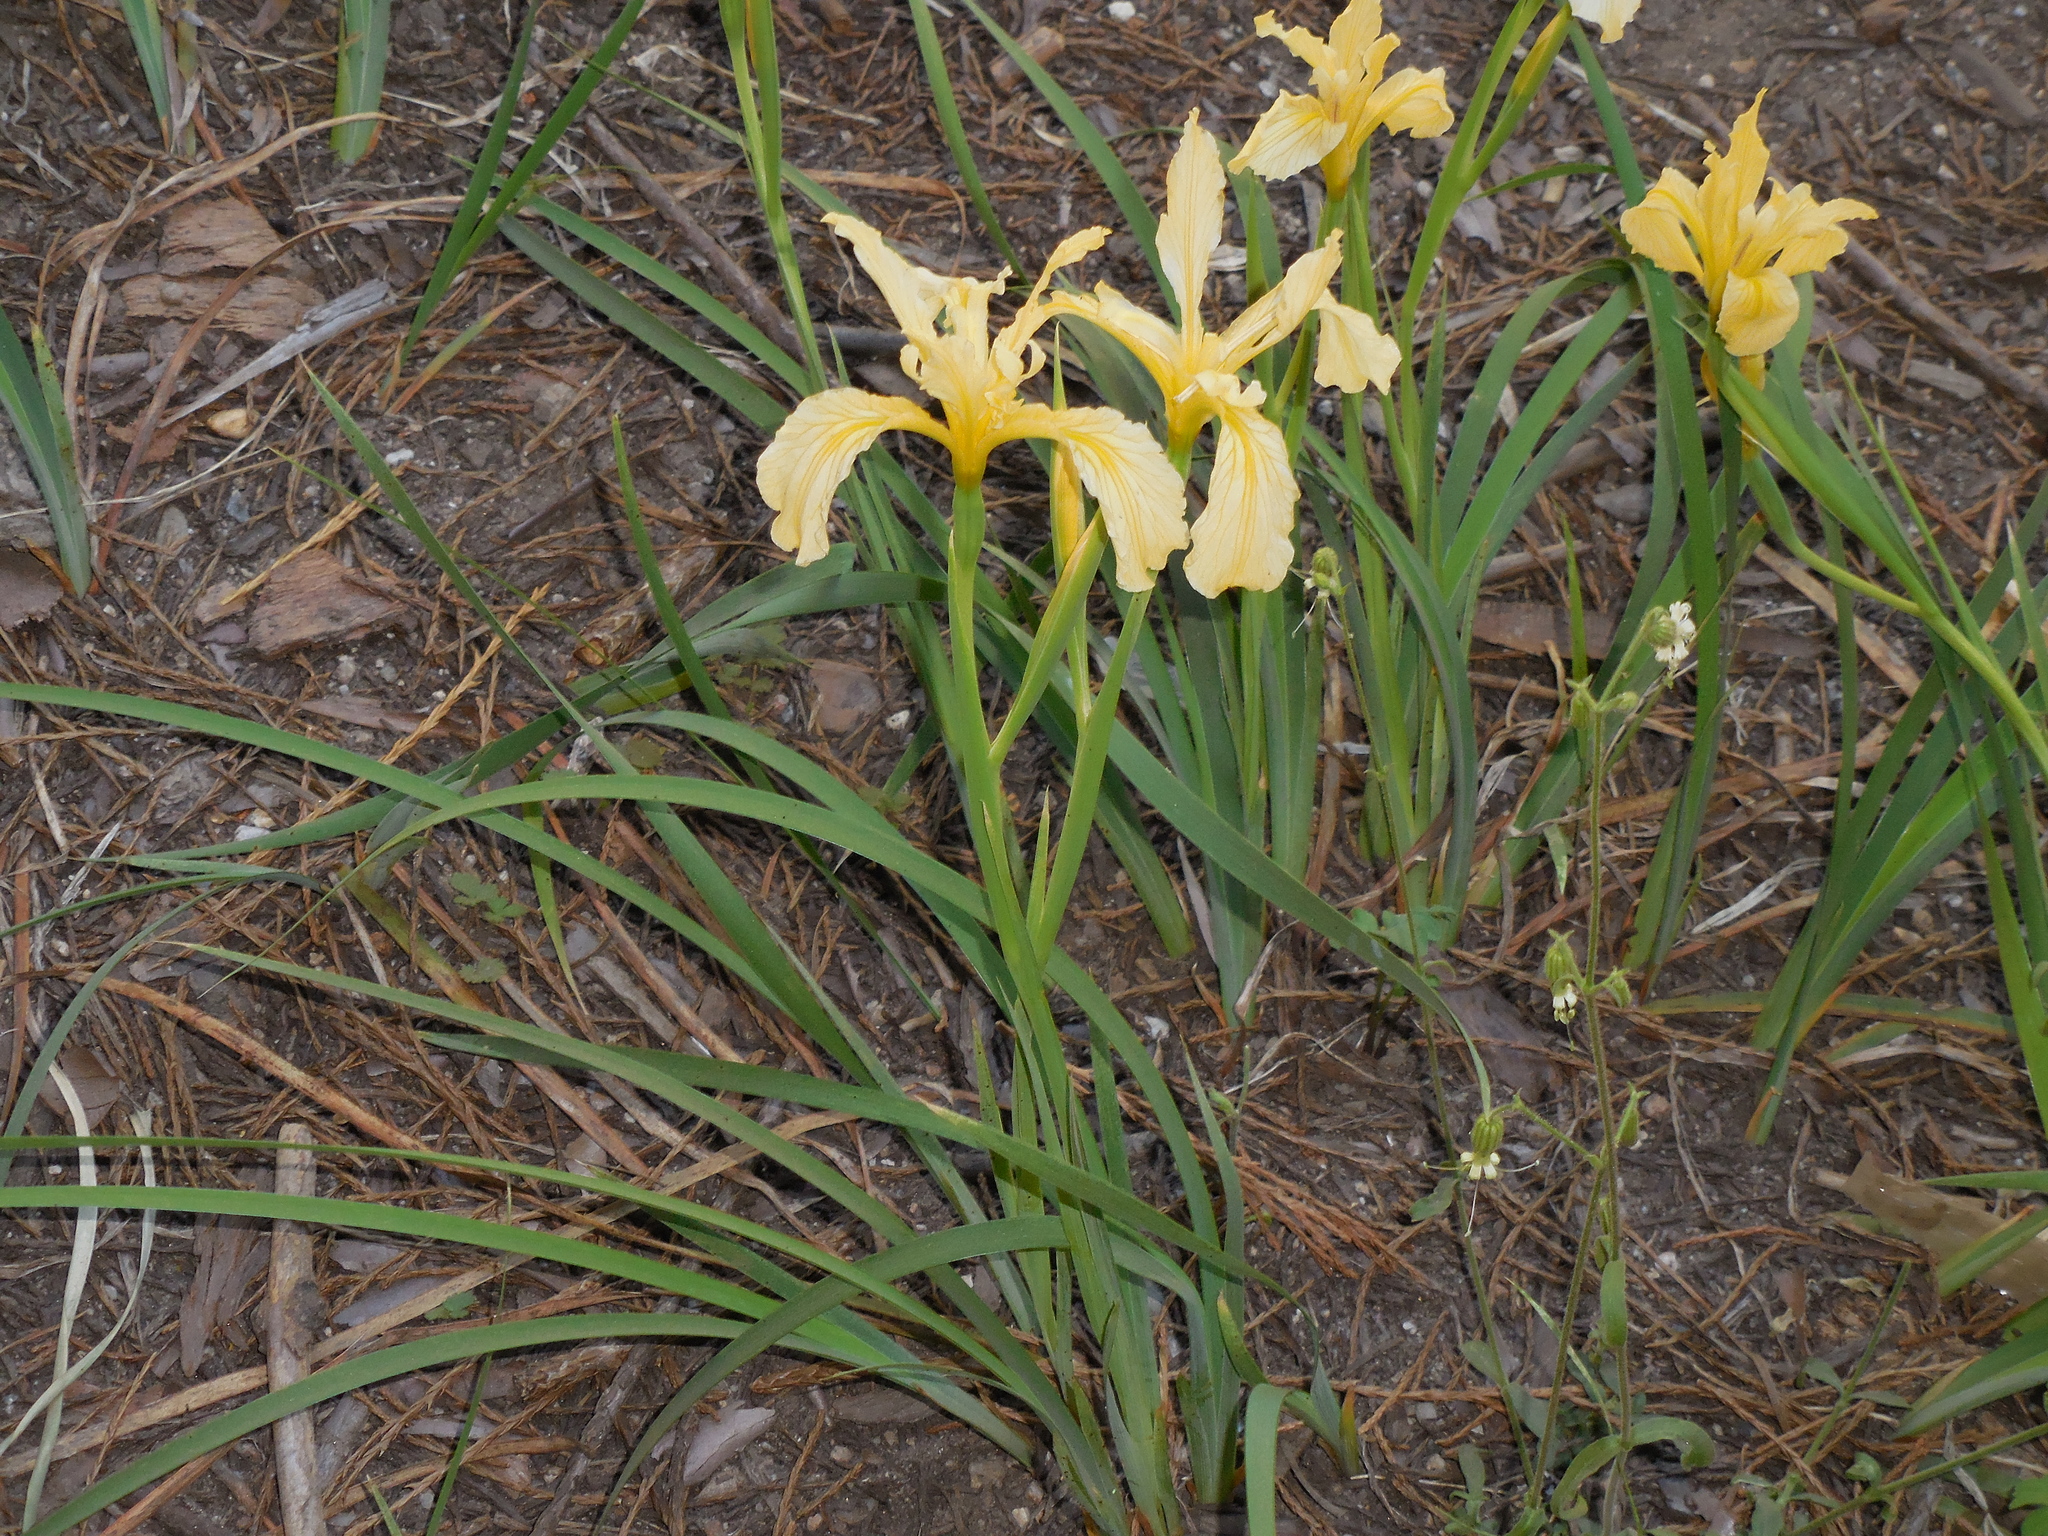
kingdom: Plantae
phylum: Tracheophyta
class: Liliopsida
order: Asparagales
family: Iridaceae
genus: Iris
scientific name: Iris hartwegii
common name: Sierra iris
